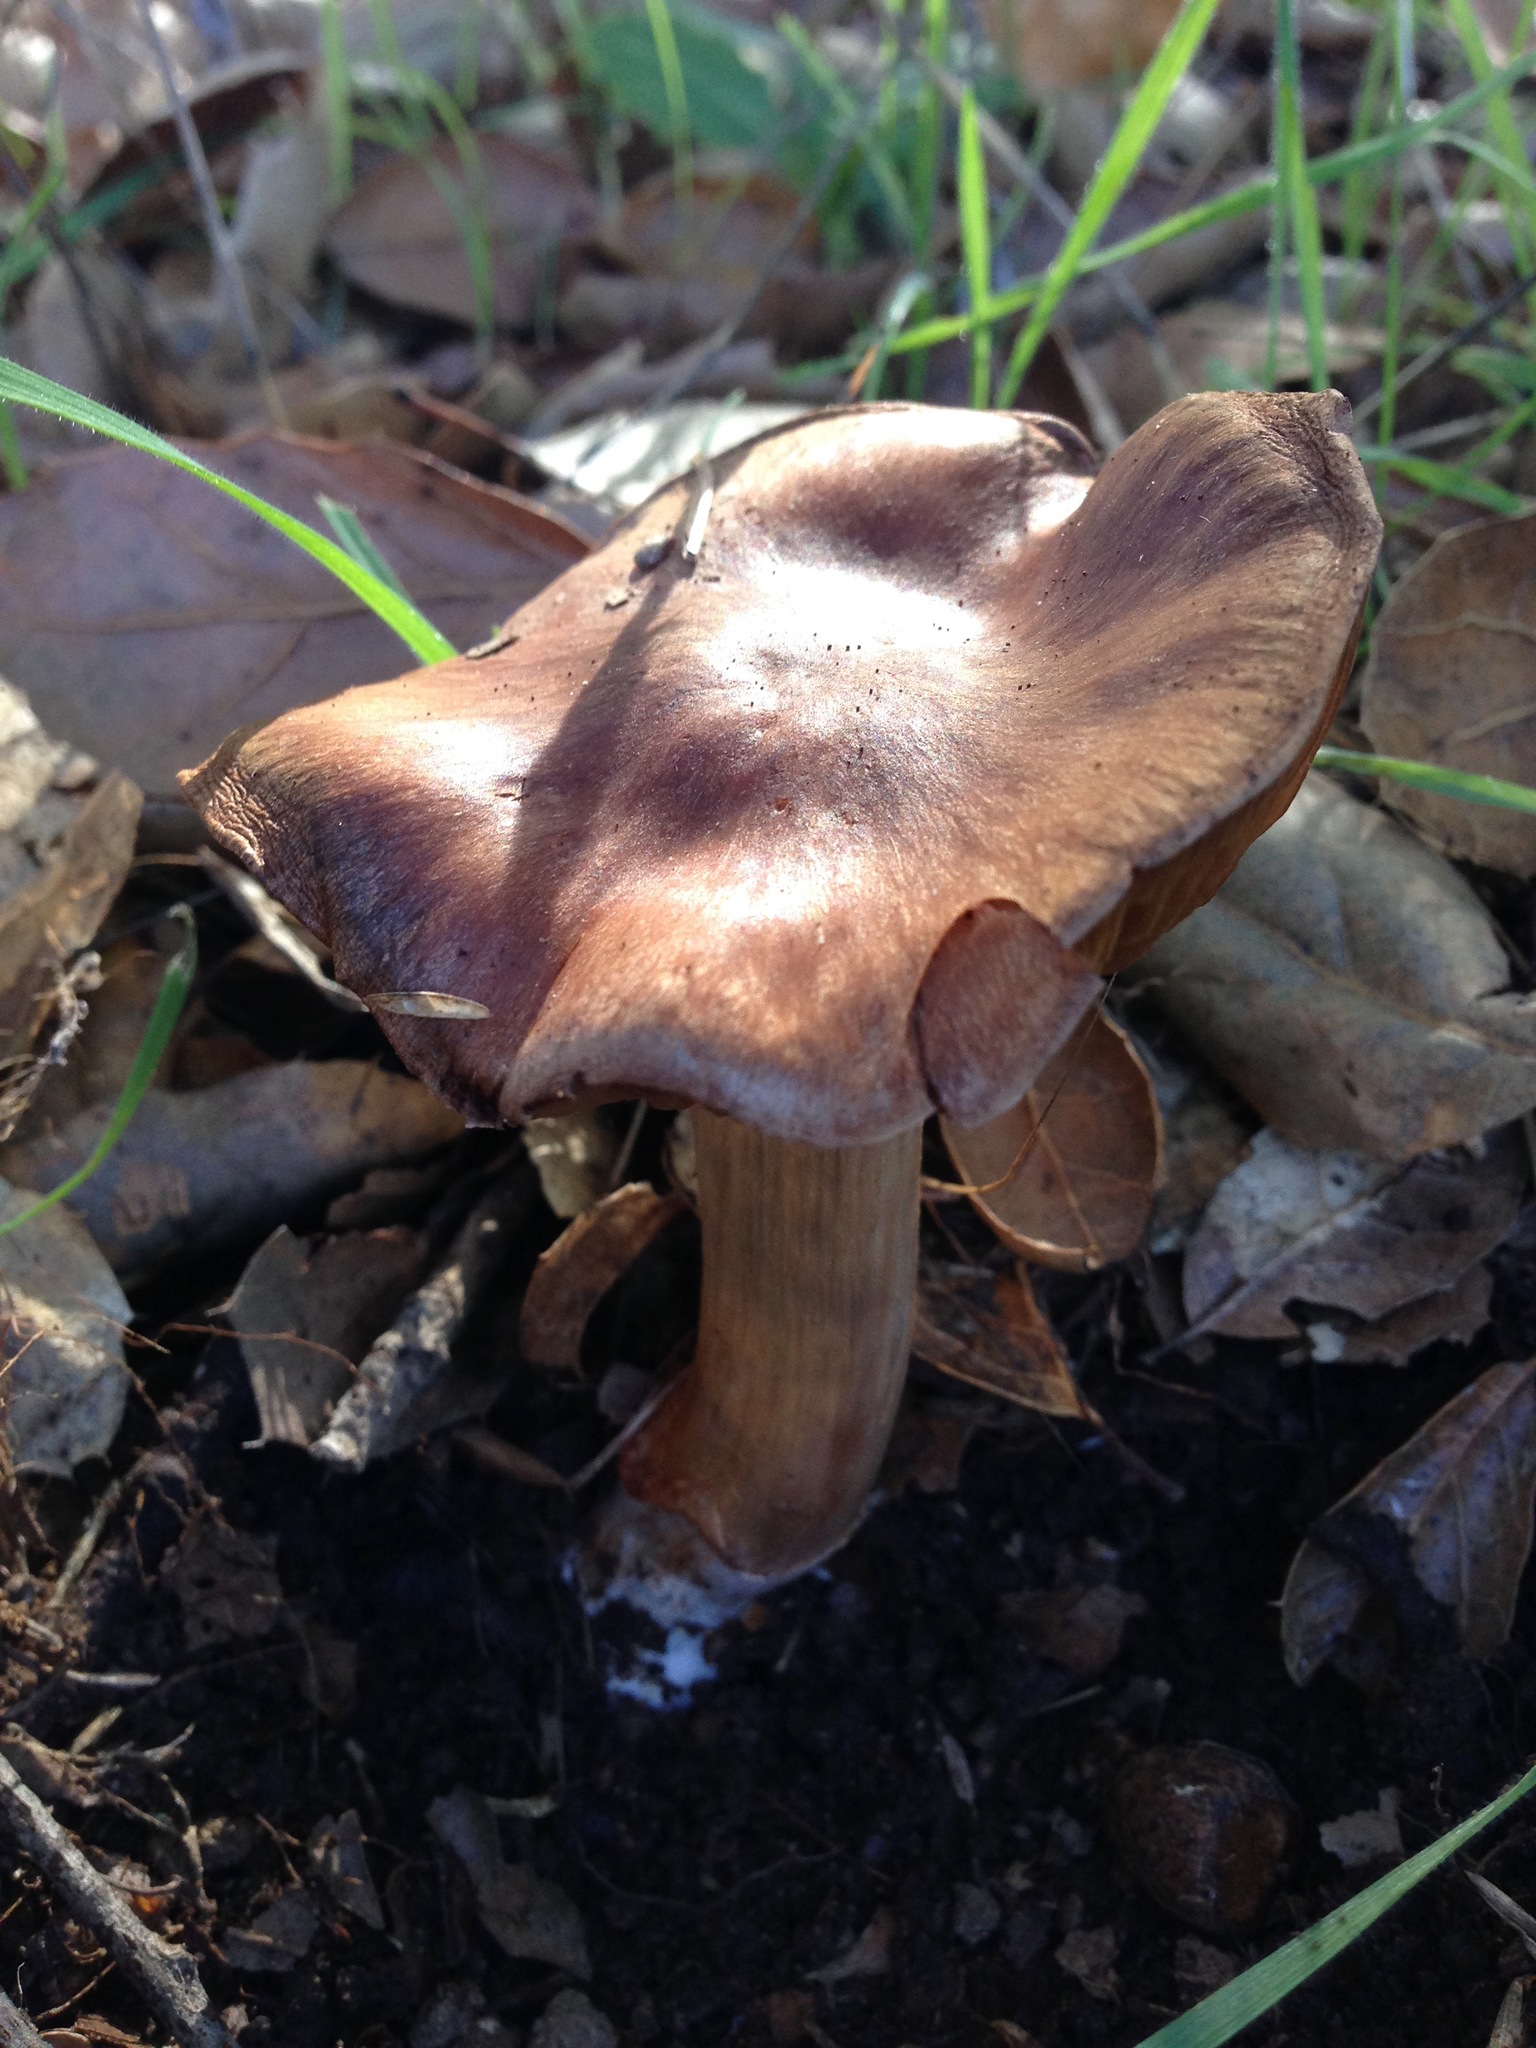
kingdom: Fungi
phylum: Basidiomycota
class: Agaricomycetes
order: Agaricales
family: Cortinariaceae
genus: Cortinarius
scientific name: Cortinarius ohlone
